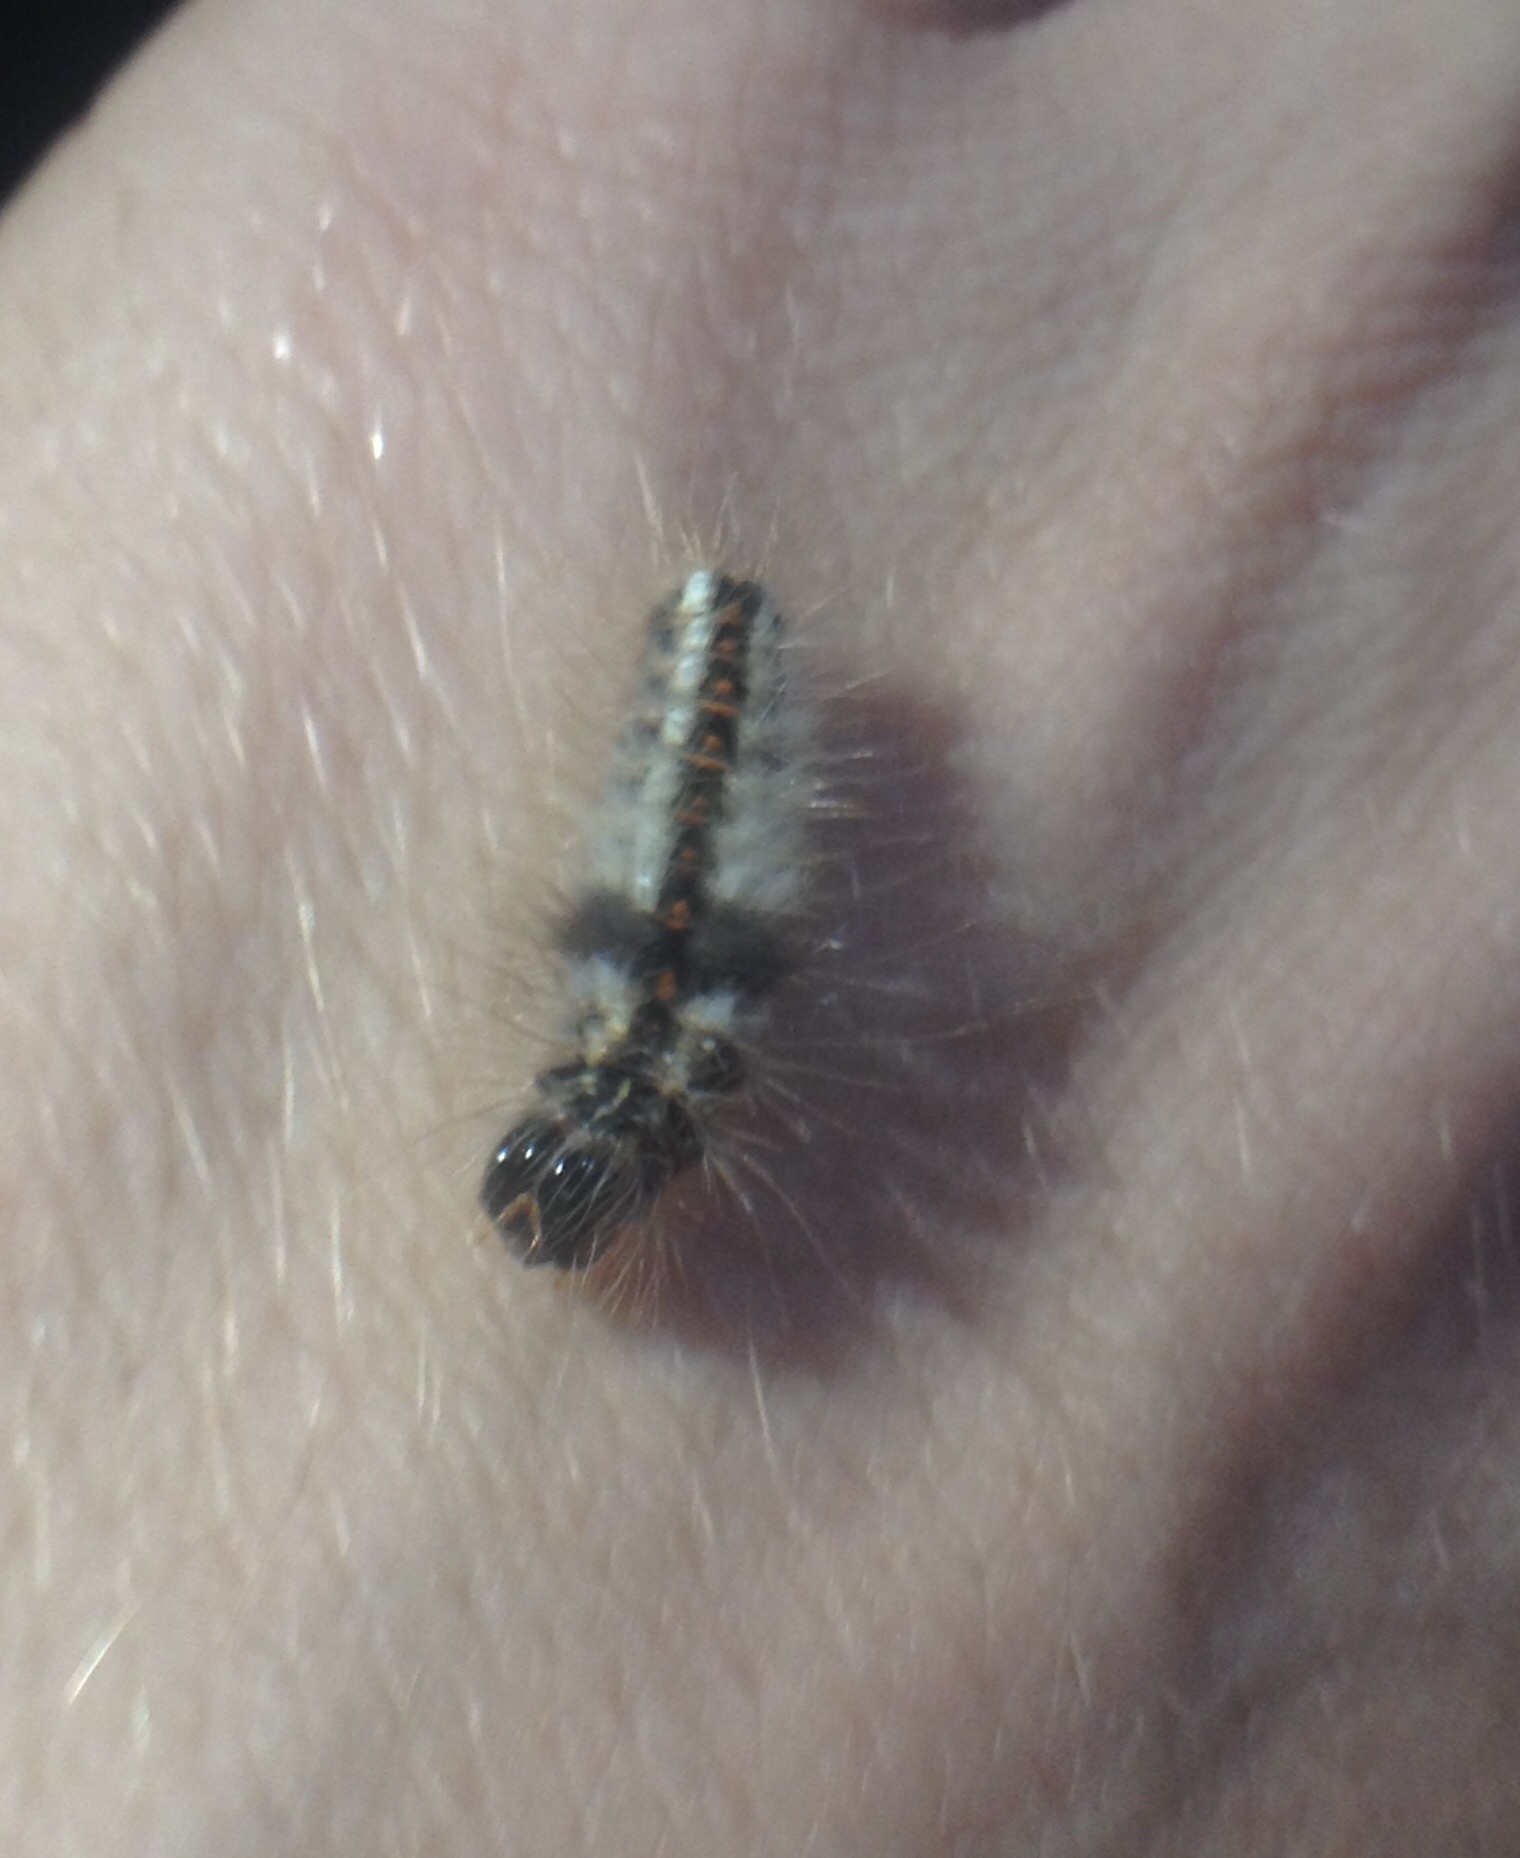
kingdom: Animalia
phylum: Arthropoda
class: Insecta
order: Lepidoptera
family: Noctuidae
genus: Acronicta
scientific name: Acronicta rumicis
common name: Knot grass
